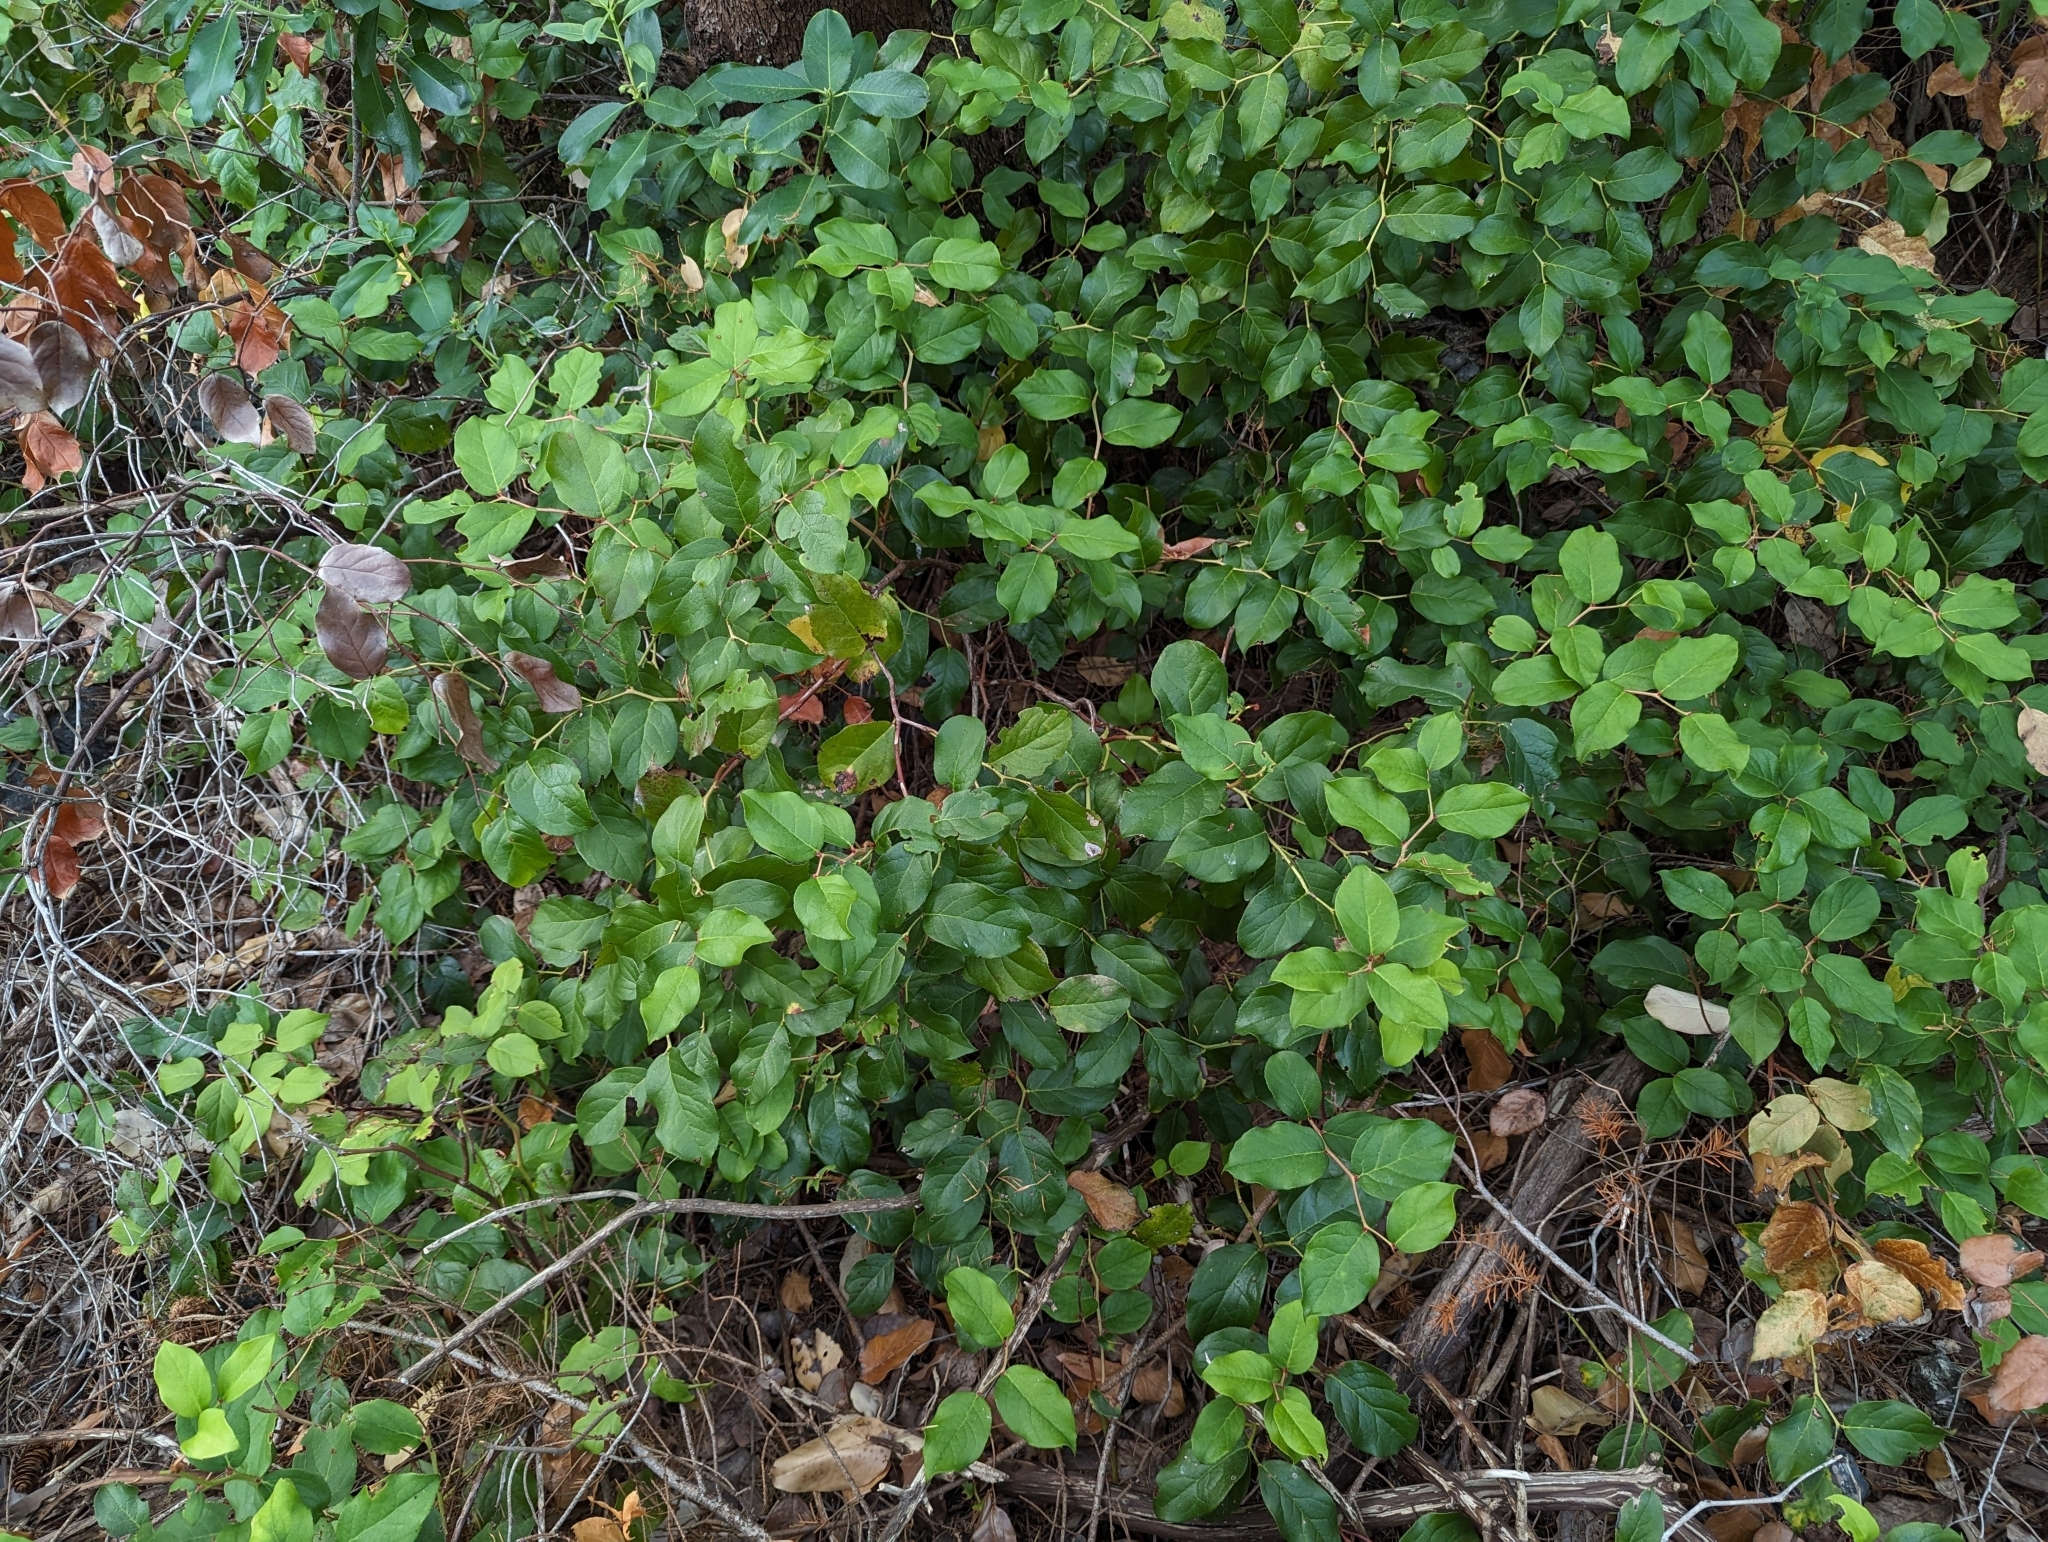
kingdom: Plantae
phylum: Tracheophyta
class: Magnoliopsida
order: Ericales
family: Ericaceae
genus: Gaultheria
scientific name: Gaultheria shallon
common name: Shallon
